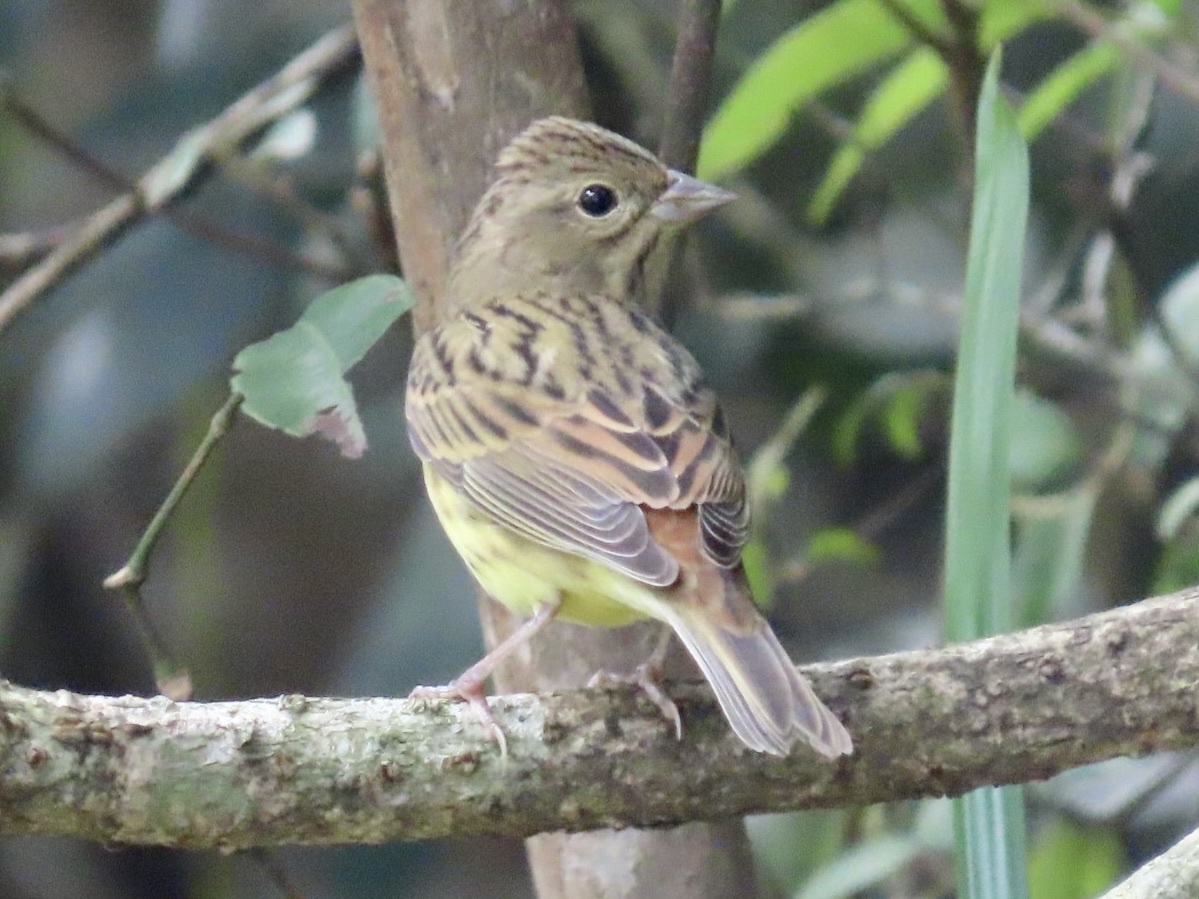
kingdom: Animalia
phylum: Chordata
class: Aves
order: Passeriformes
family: Emberizidae
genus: Emberiza
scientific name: Emberiza rutila
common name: Chestnut bunting
